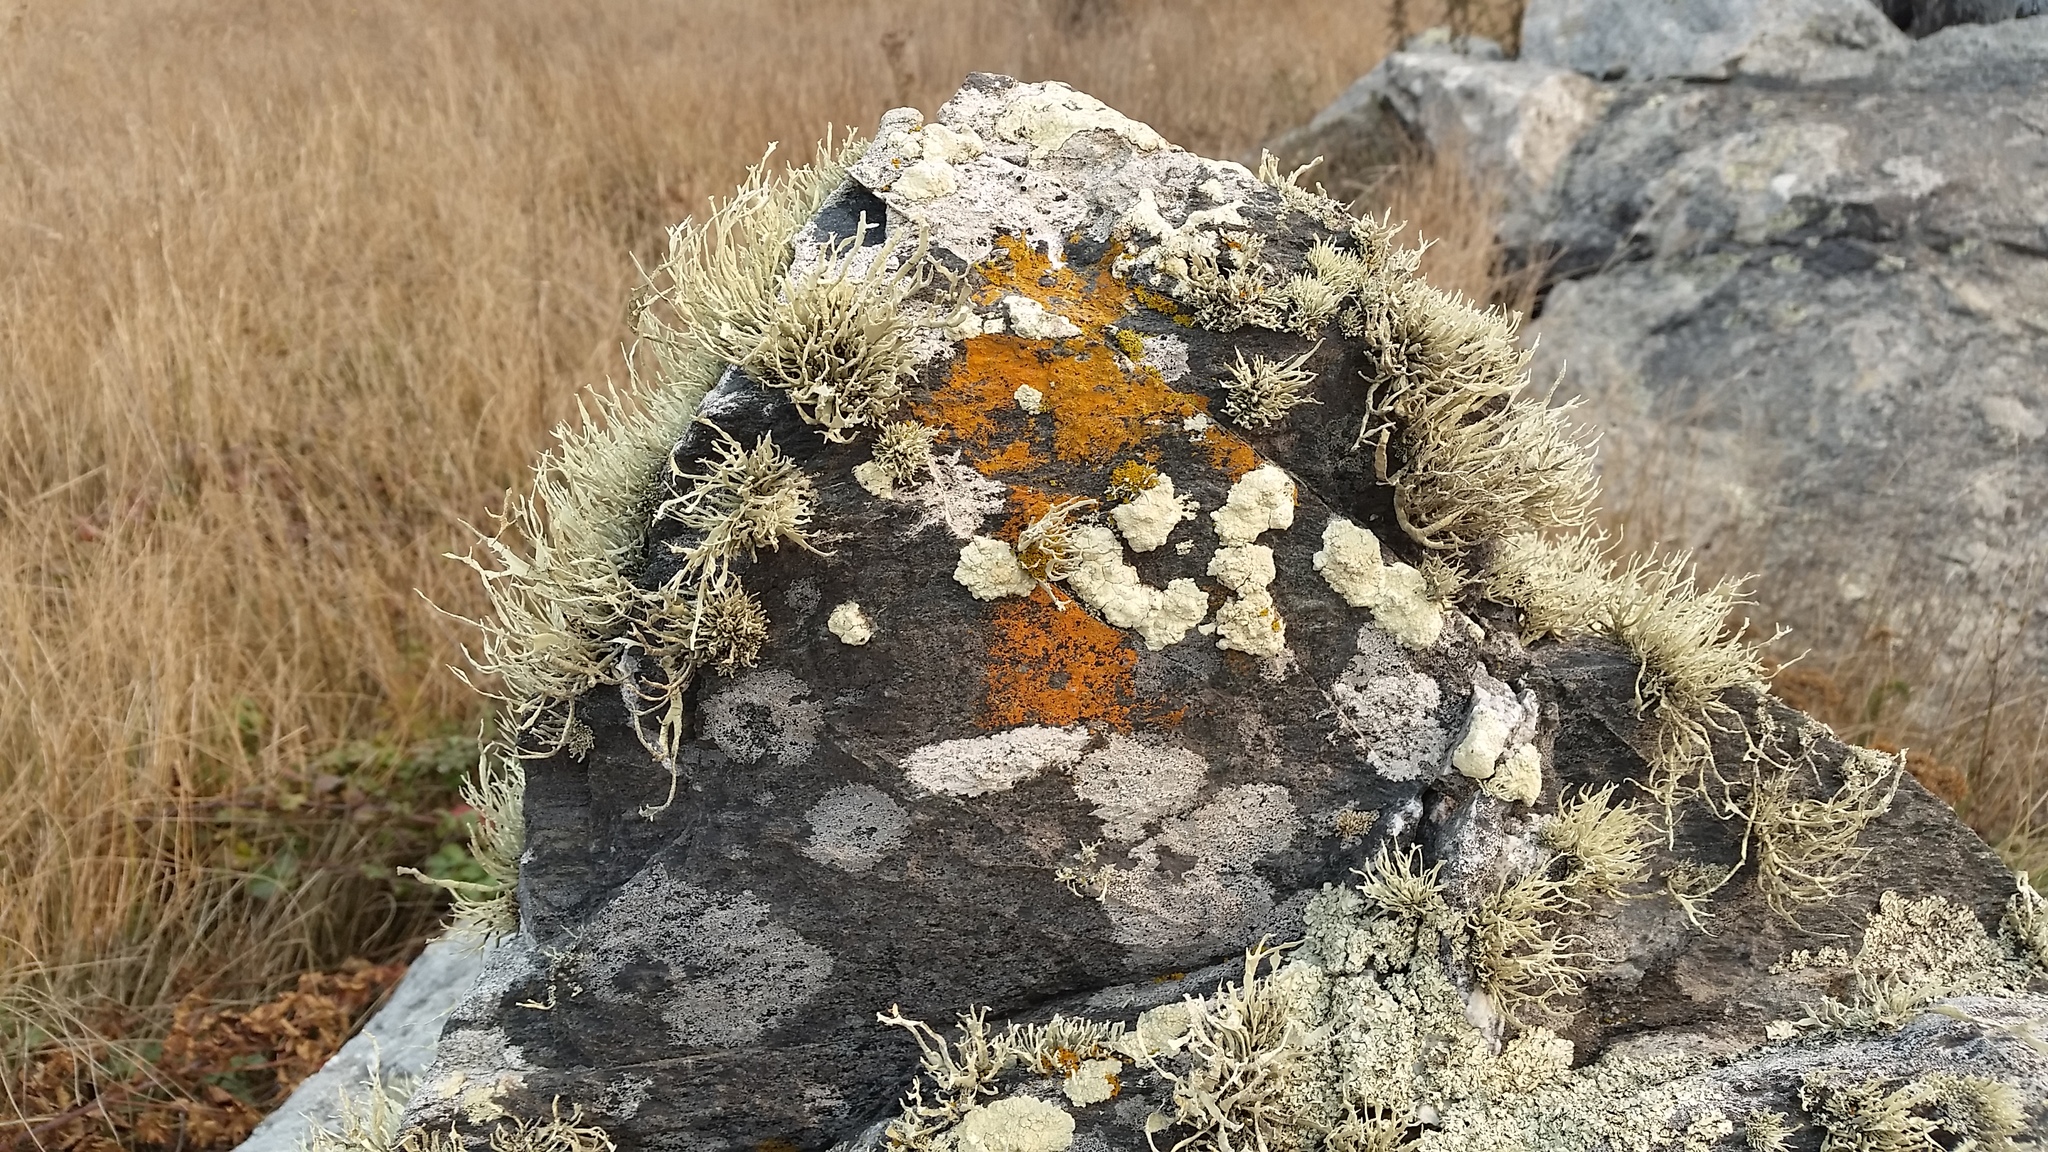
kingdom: Fungi
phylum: Ascomycota
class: Lecanoromycetes
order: Lecanorales
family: Ramalinaceae
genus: Niebla
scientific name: Niebla homalea
